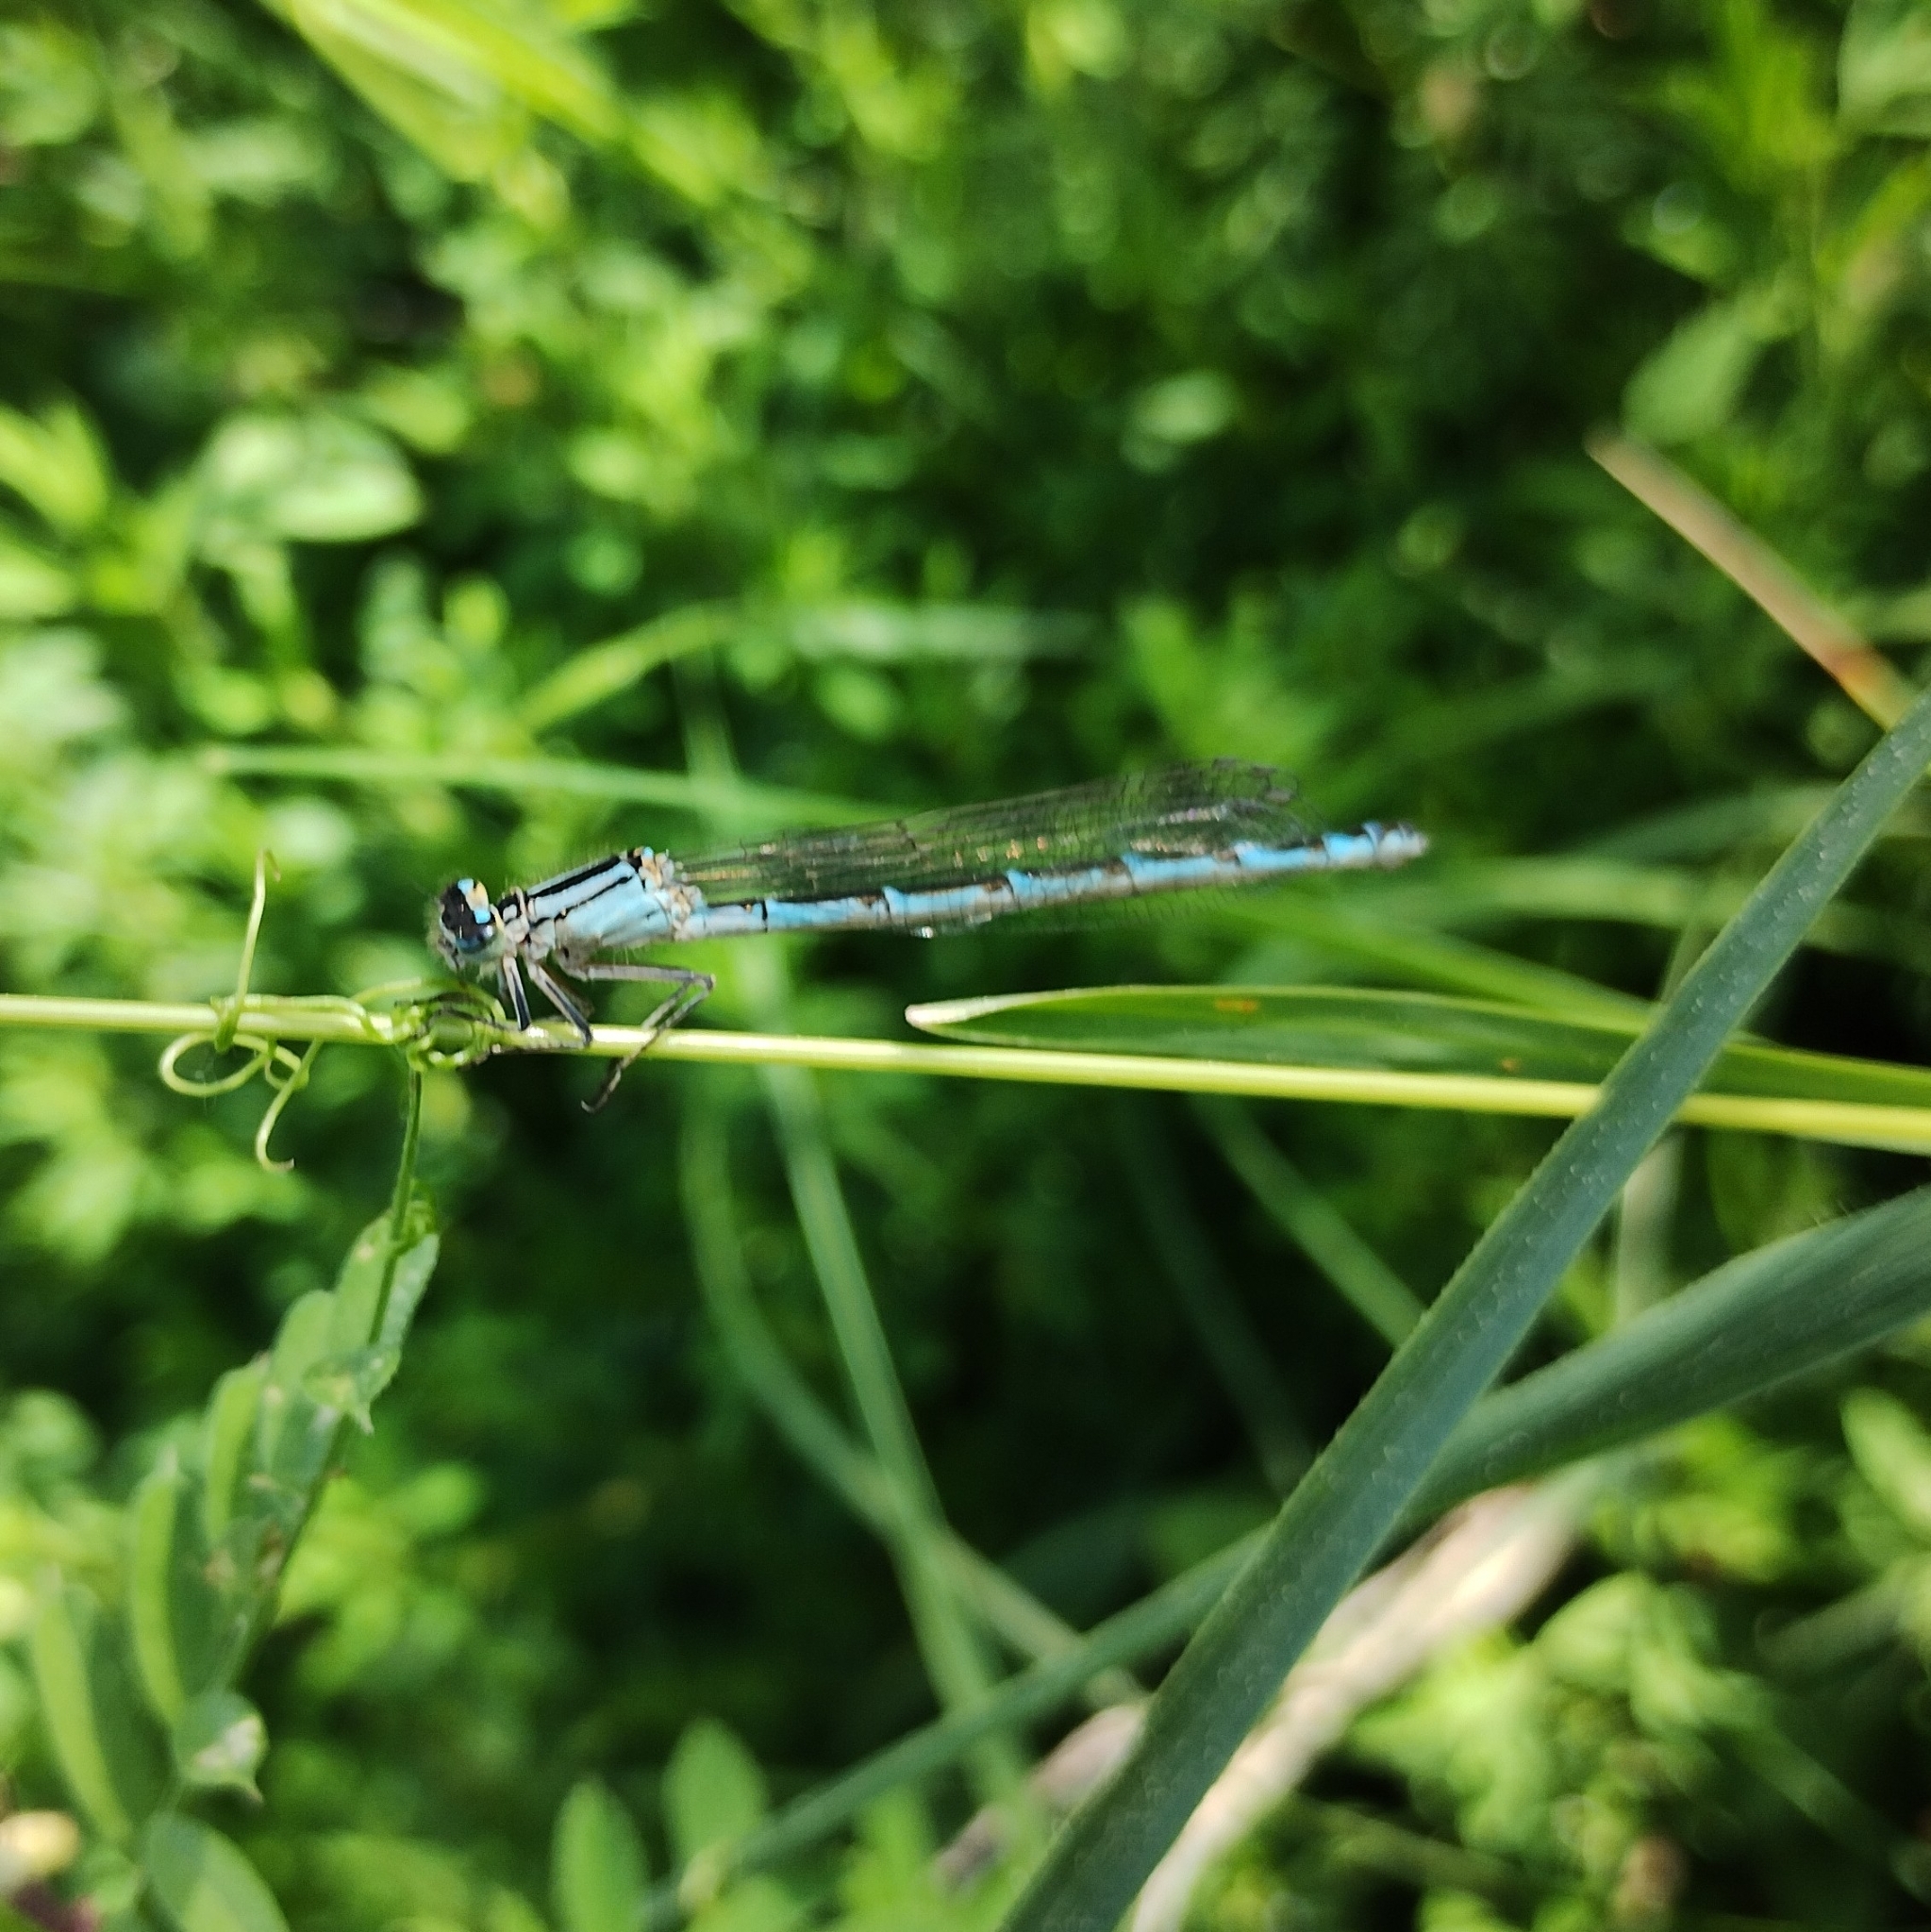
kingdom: Animalia
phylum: Arthropoda
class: Insecta
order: Odonata
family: Coenagrionidae
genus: Enallagma
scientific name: Enallagma cyathigerum
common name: Common blue damselfly
